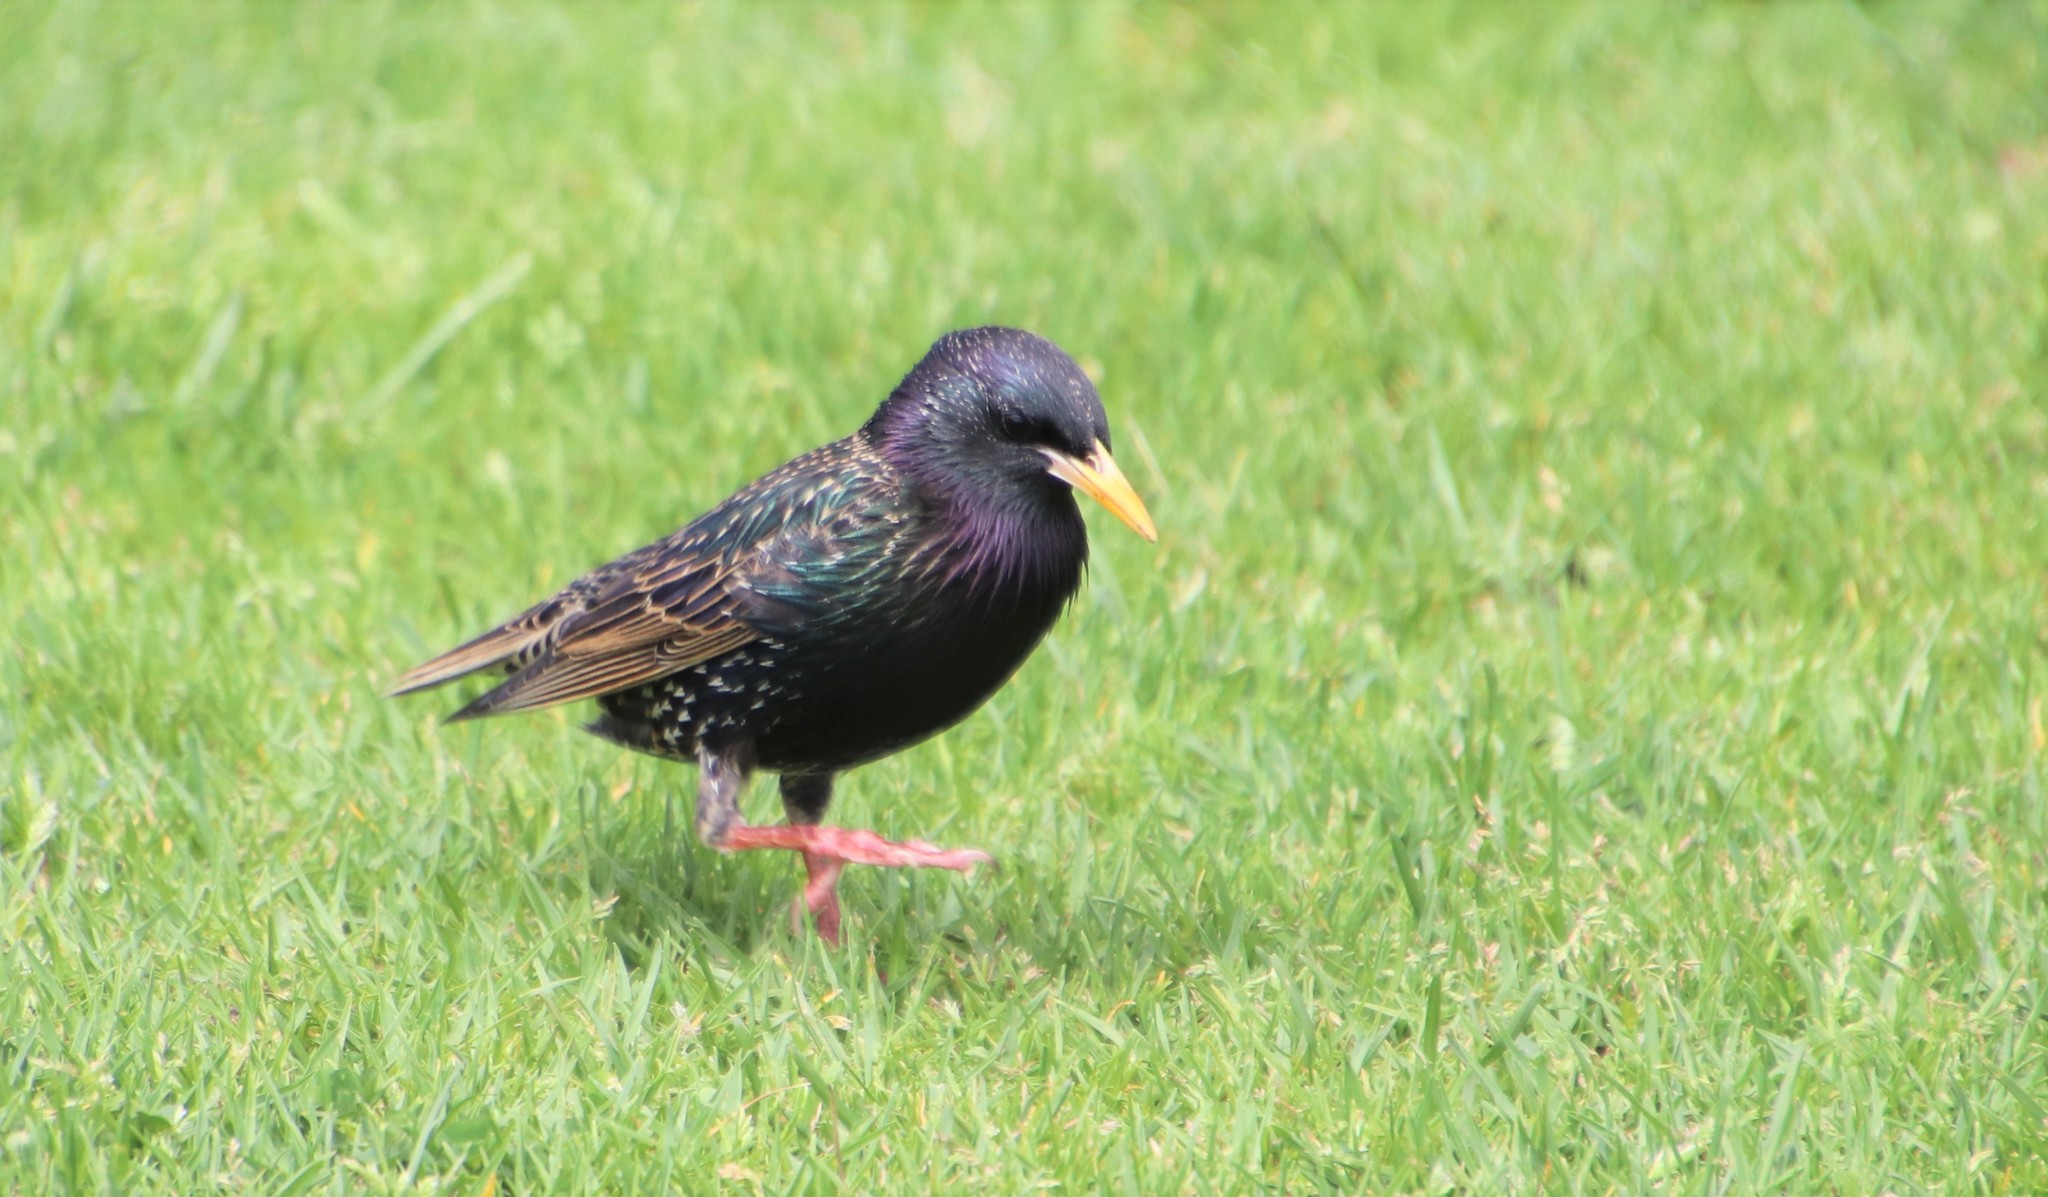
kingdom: Animalia
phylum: Chordata
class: Aves
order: Passeriformes
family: Sturnidae
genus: Sturnus
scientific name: Sturnus vulgaris
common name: Common starling
